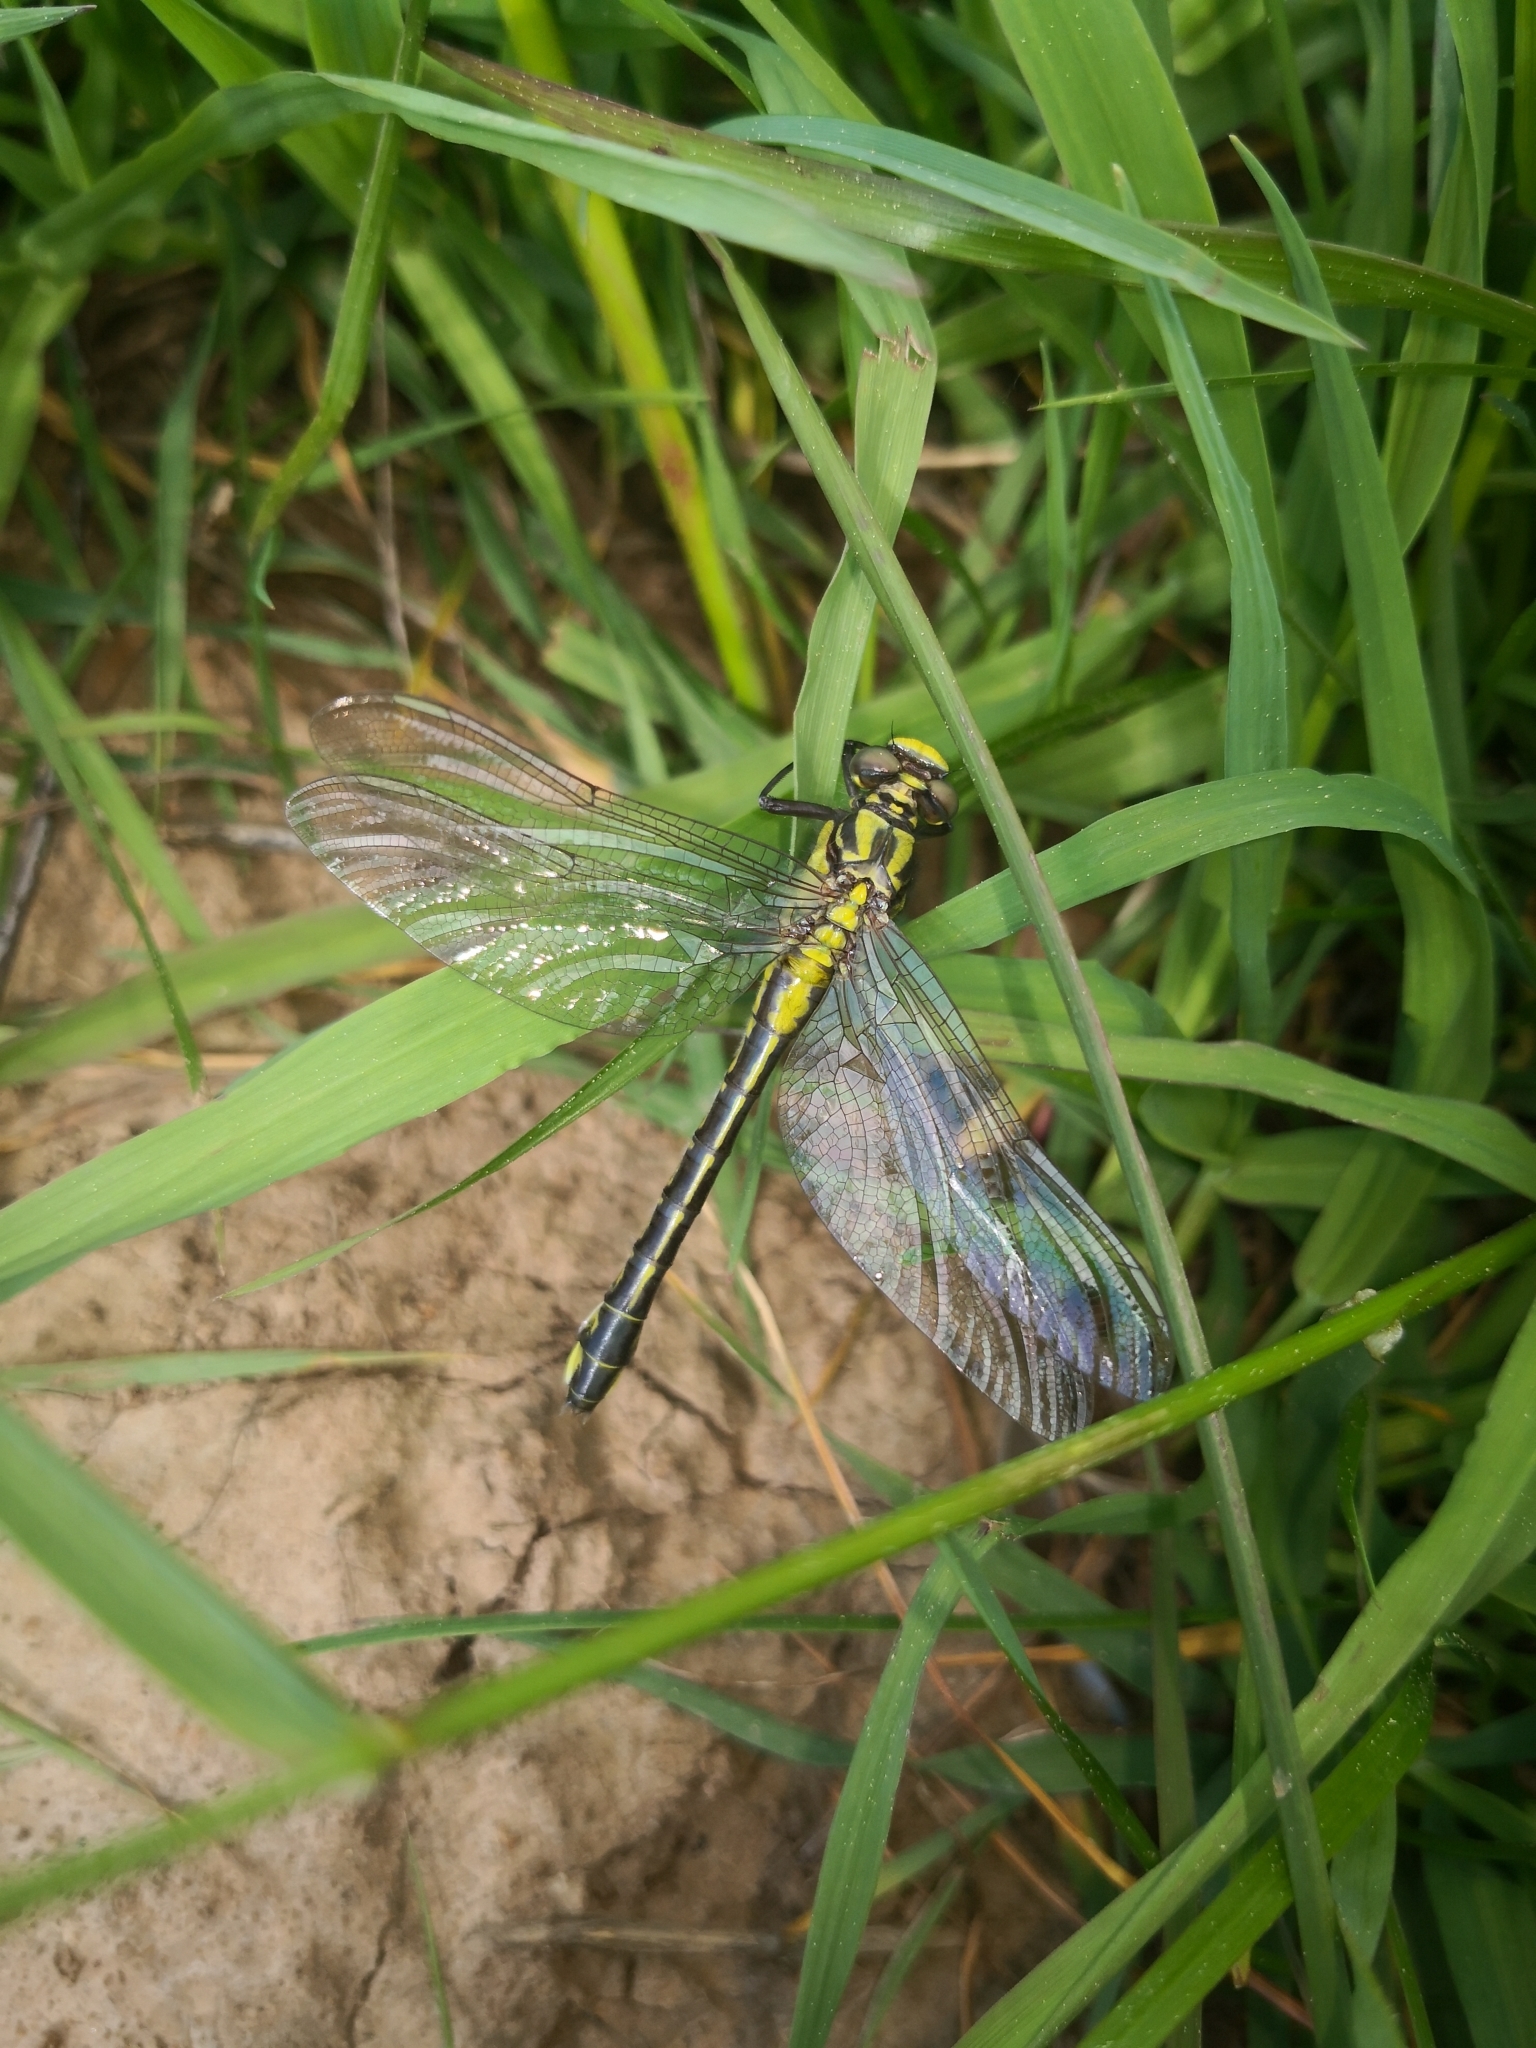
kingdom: Animalia
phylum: Arthropoda
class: Insecta
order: Odonata
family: Gomphidae
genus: Gomphus
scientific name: Gomphus vulgatissimus
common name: Club-tailed dragonfly
